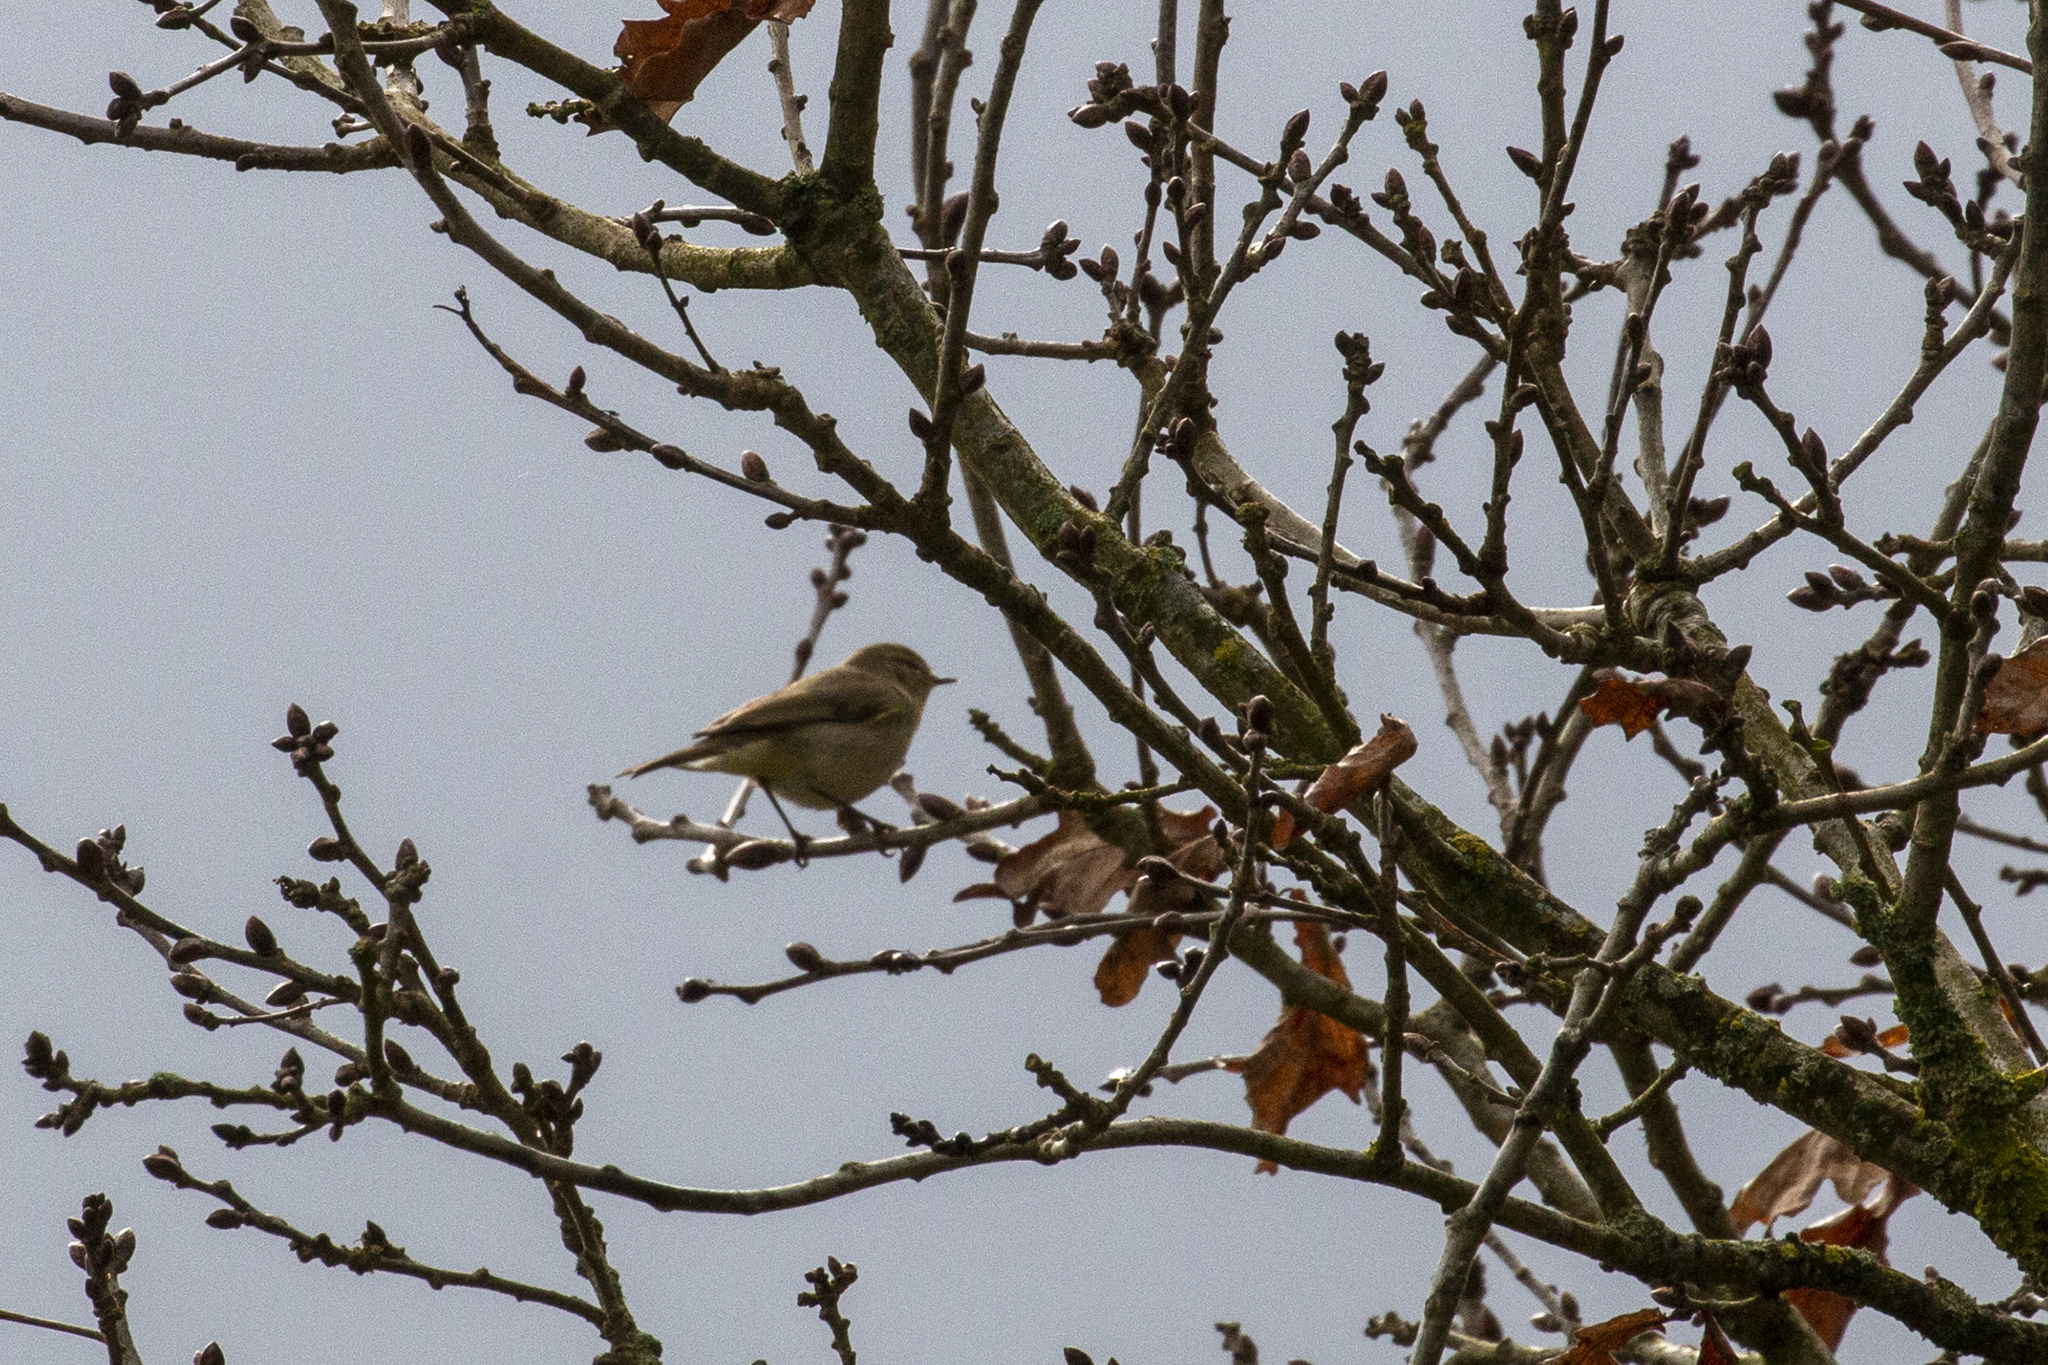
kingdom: Animalia
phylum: Chordata
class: Aves
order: Passeriformes
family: Phylloscopidae
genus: Phylloscopus
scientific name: Phylloscopus collybita
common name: Common chiffchaff
